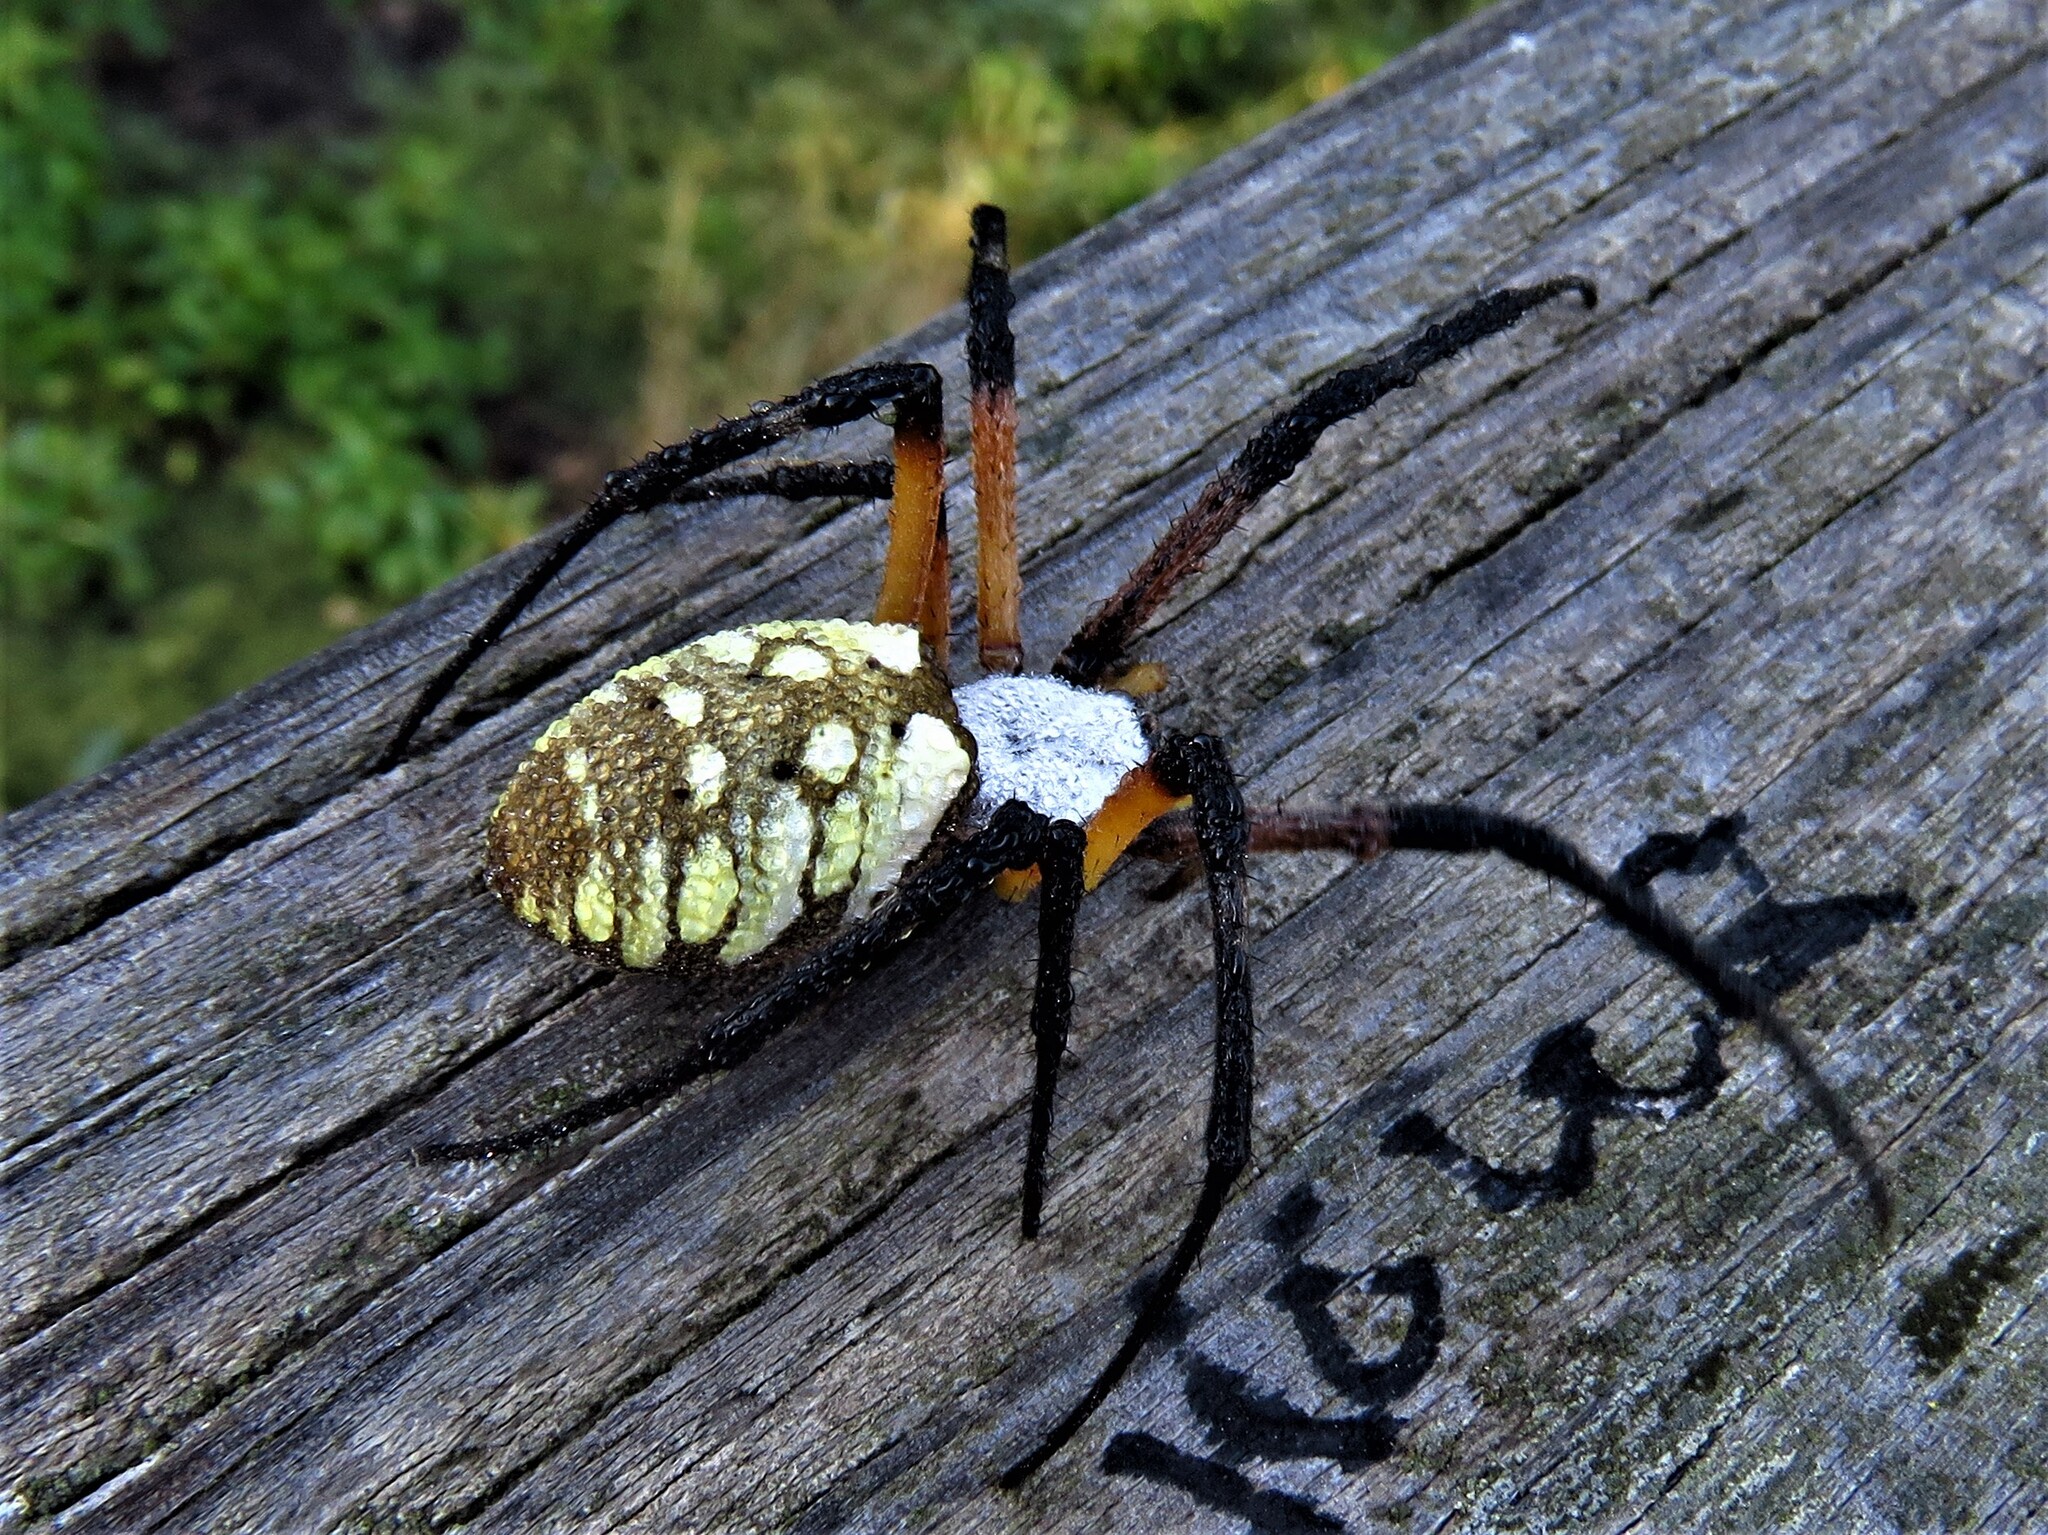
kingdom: Animalia
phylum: Arthropoda
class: Arachnida
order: Araneae
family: Araneidae
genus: Argiope
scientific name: Argiope aurantia
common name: Orb weavers
